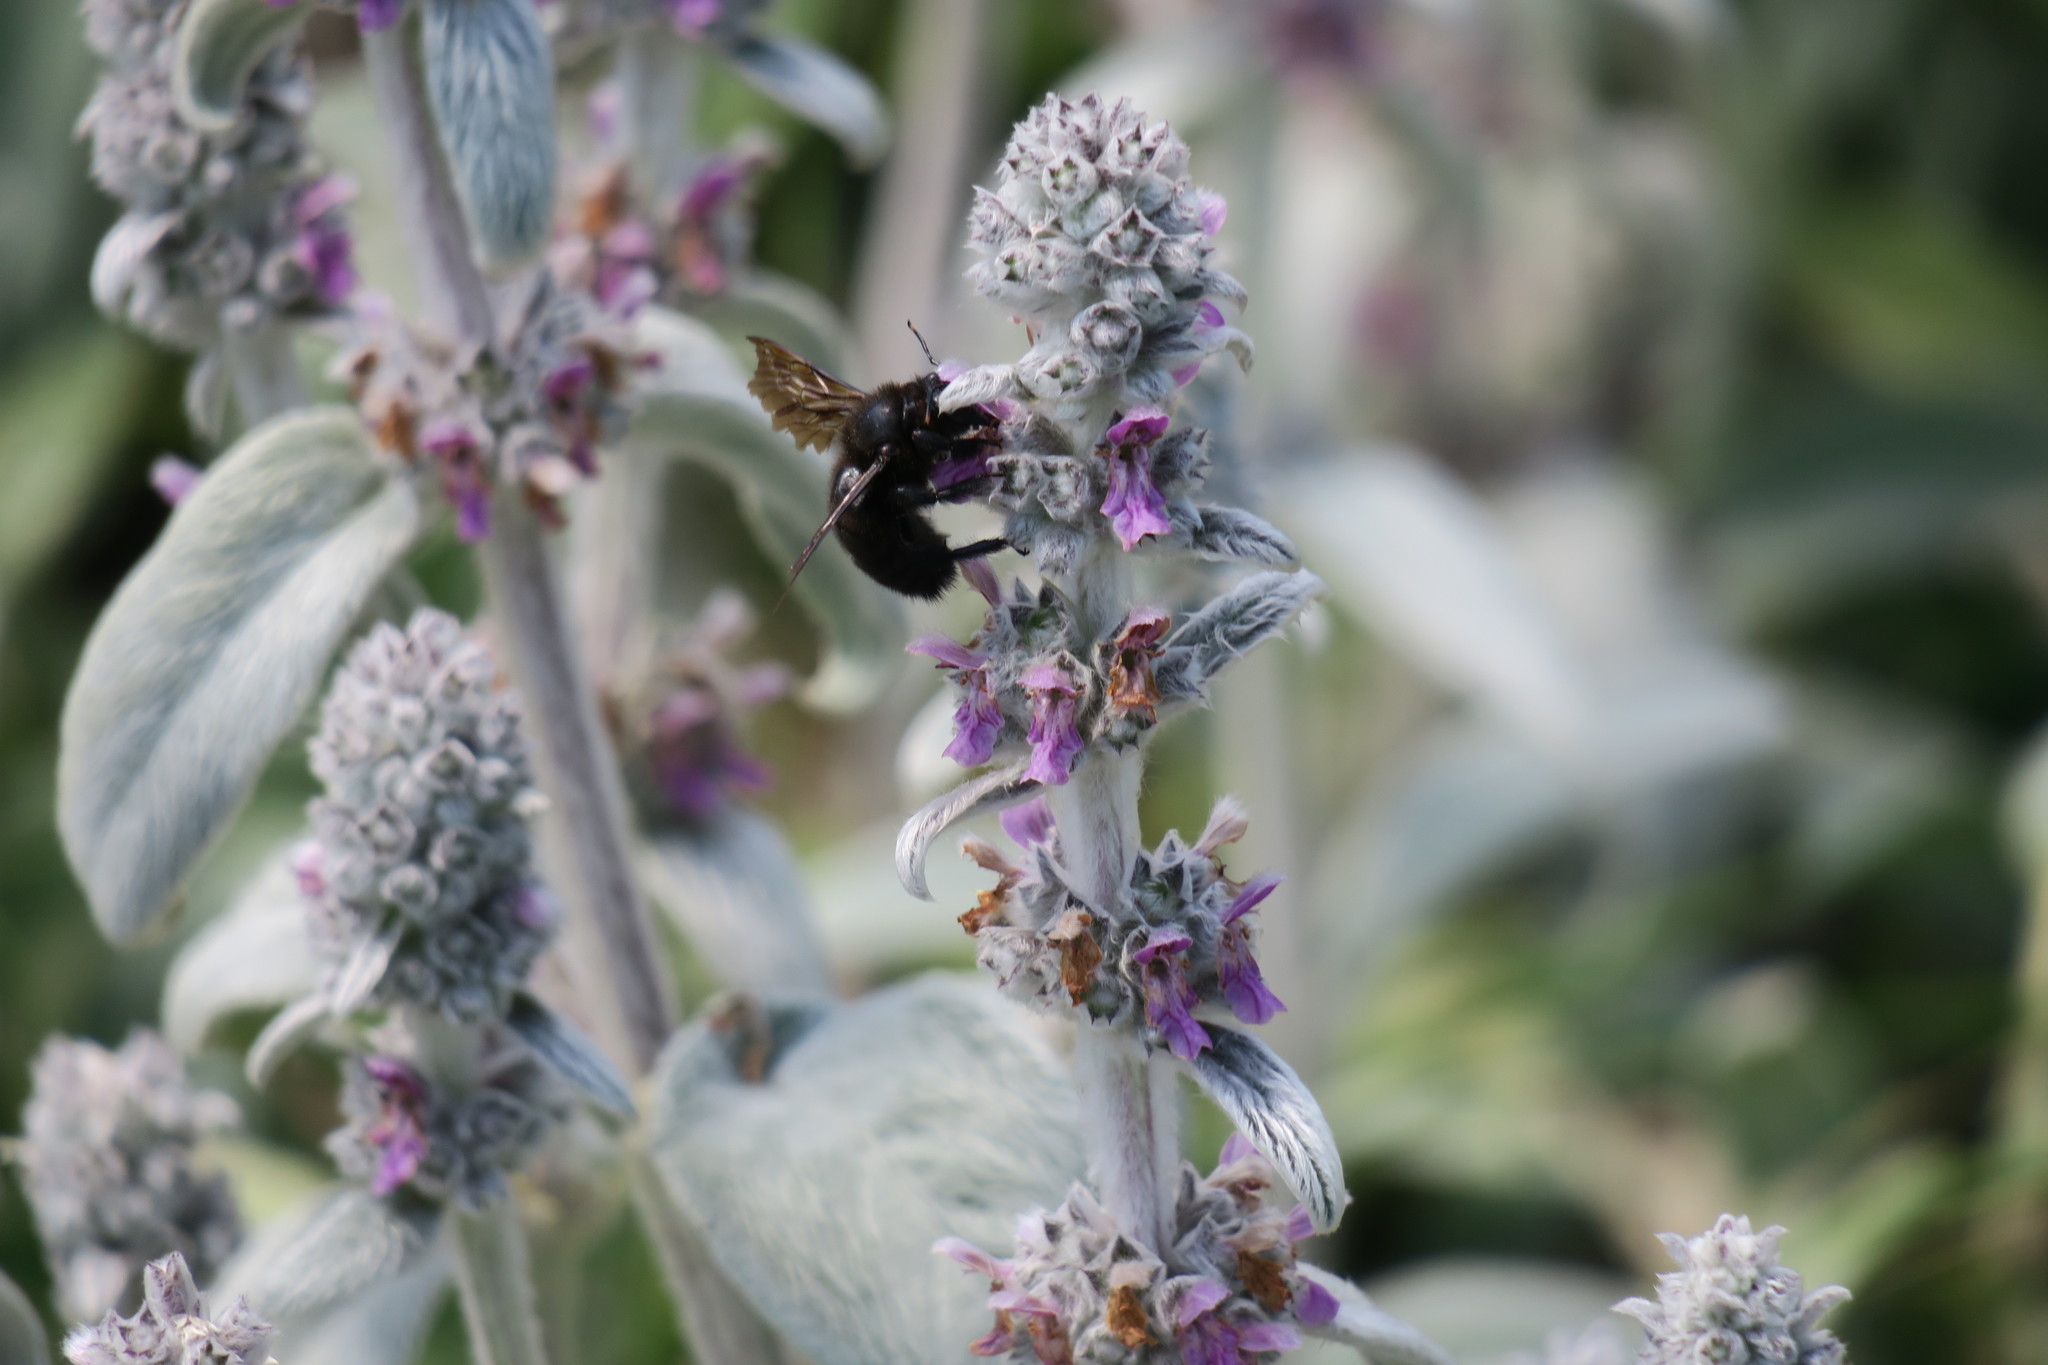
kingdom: Plantae
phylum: Tracheophyta
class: Magnoliopsida
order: Lamiales
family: Lamiaceae
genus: Stachys
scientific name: Stachys byzantina
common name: Lamb's-ear
